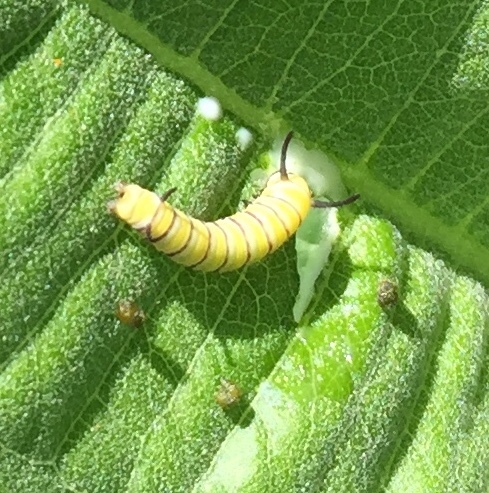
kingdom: Animalia
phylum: Arthropoda
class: Insecta
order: Lepidoptera
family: Nymphalidae
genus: Danaus
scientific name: Danaus plexippus
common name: Monarch
